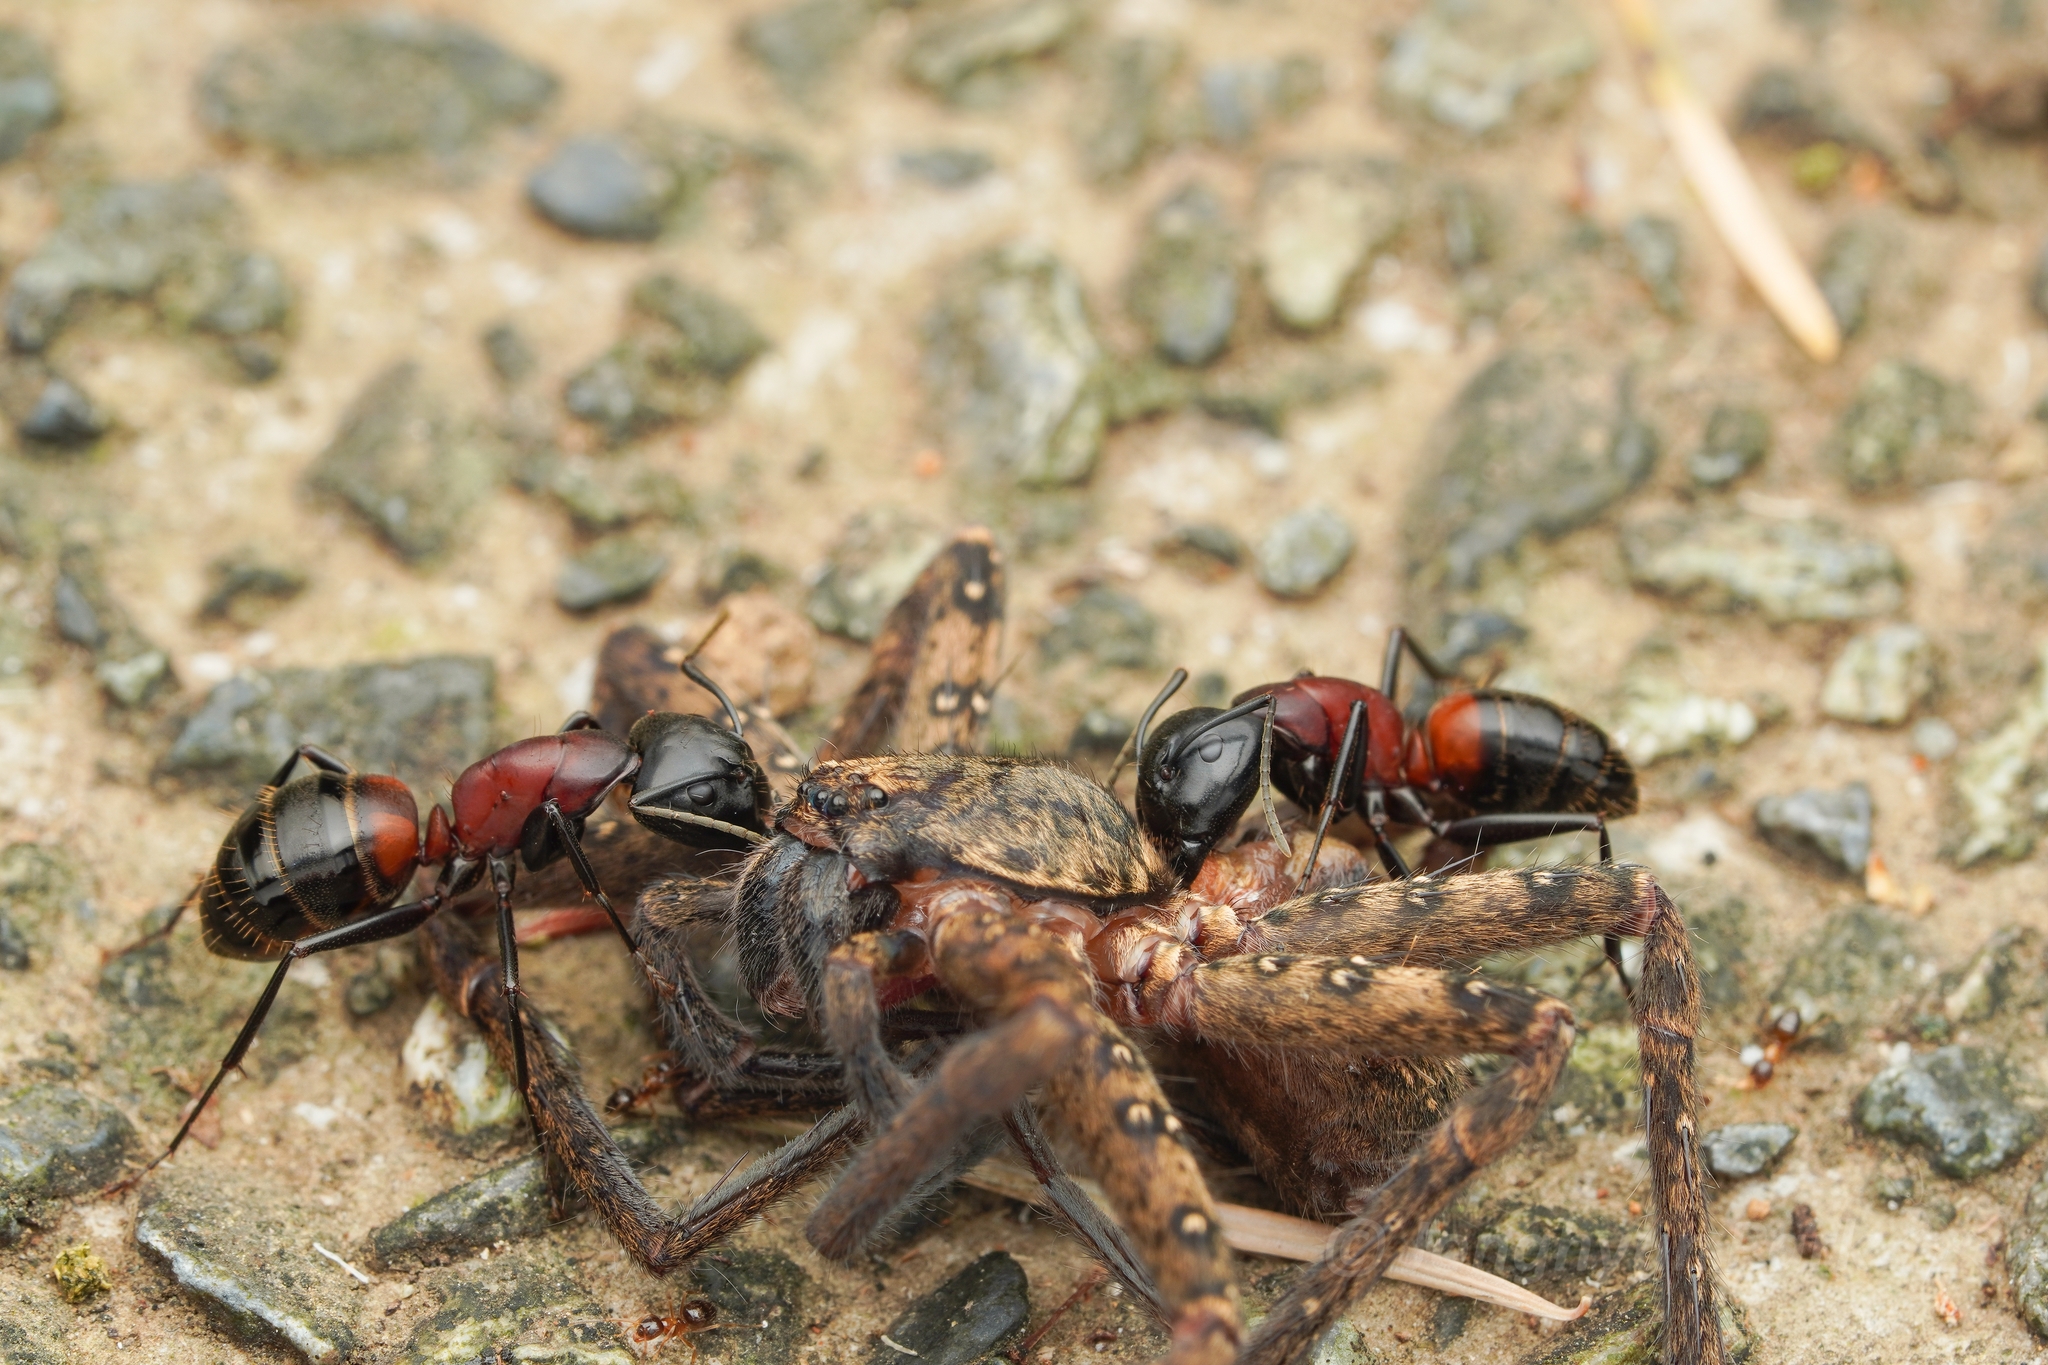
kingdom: Animalia
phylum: Arthropoda
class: Insecta
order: Hymenoptera
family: Formicidae
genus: Camponotus
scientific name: Camponotus obscuripes
